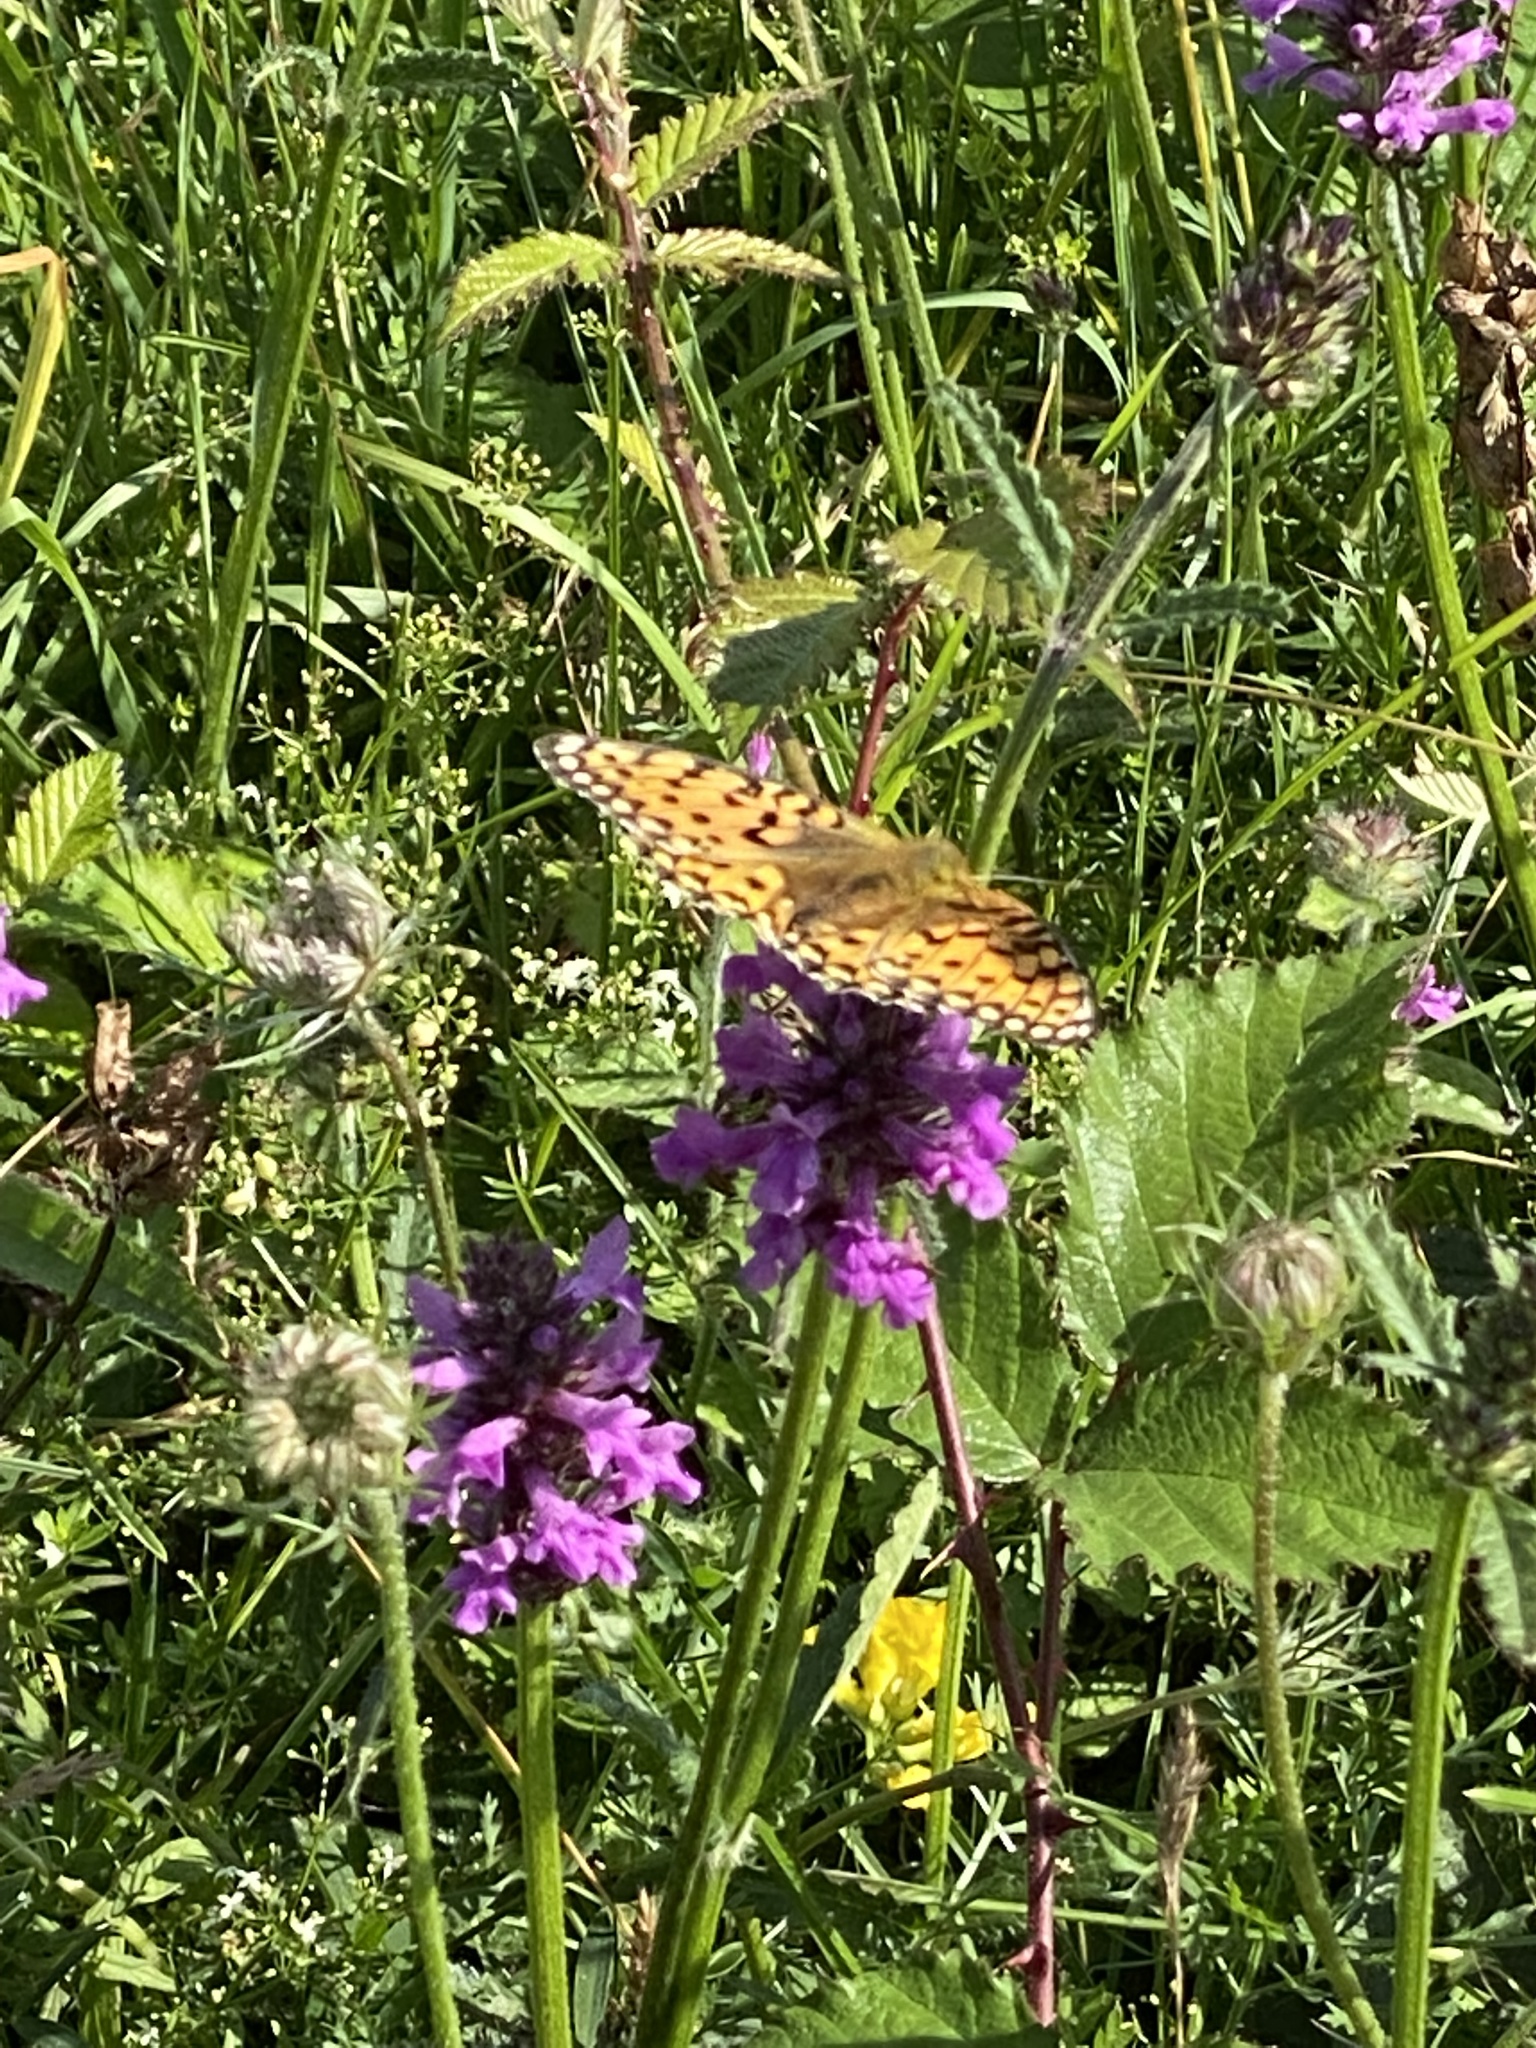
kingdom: Animalia
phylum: Arthropoda
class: Insecta
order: Lepidoptera
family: Nymphalidae
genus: Speyeria
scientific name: Speyeria aglaja
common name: Dark green fritillary
